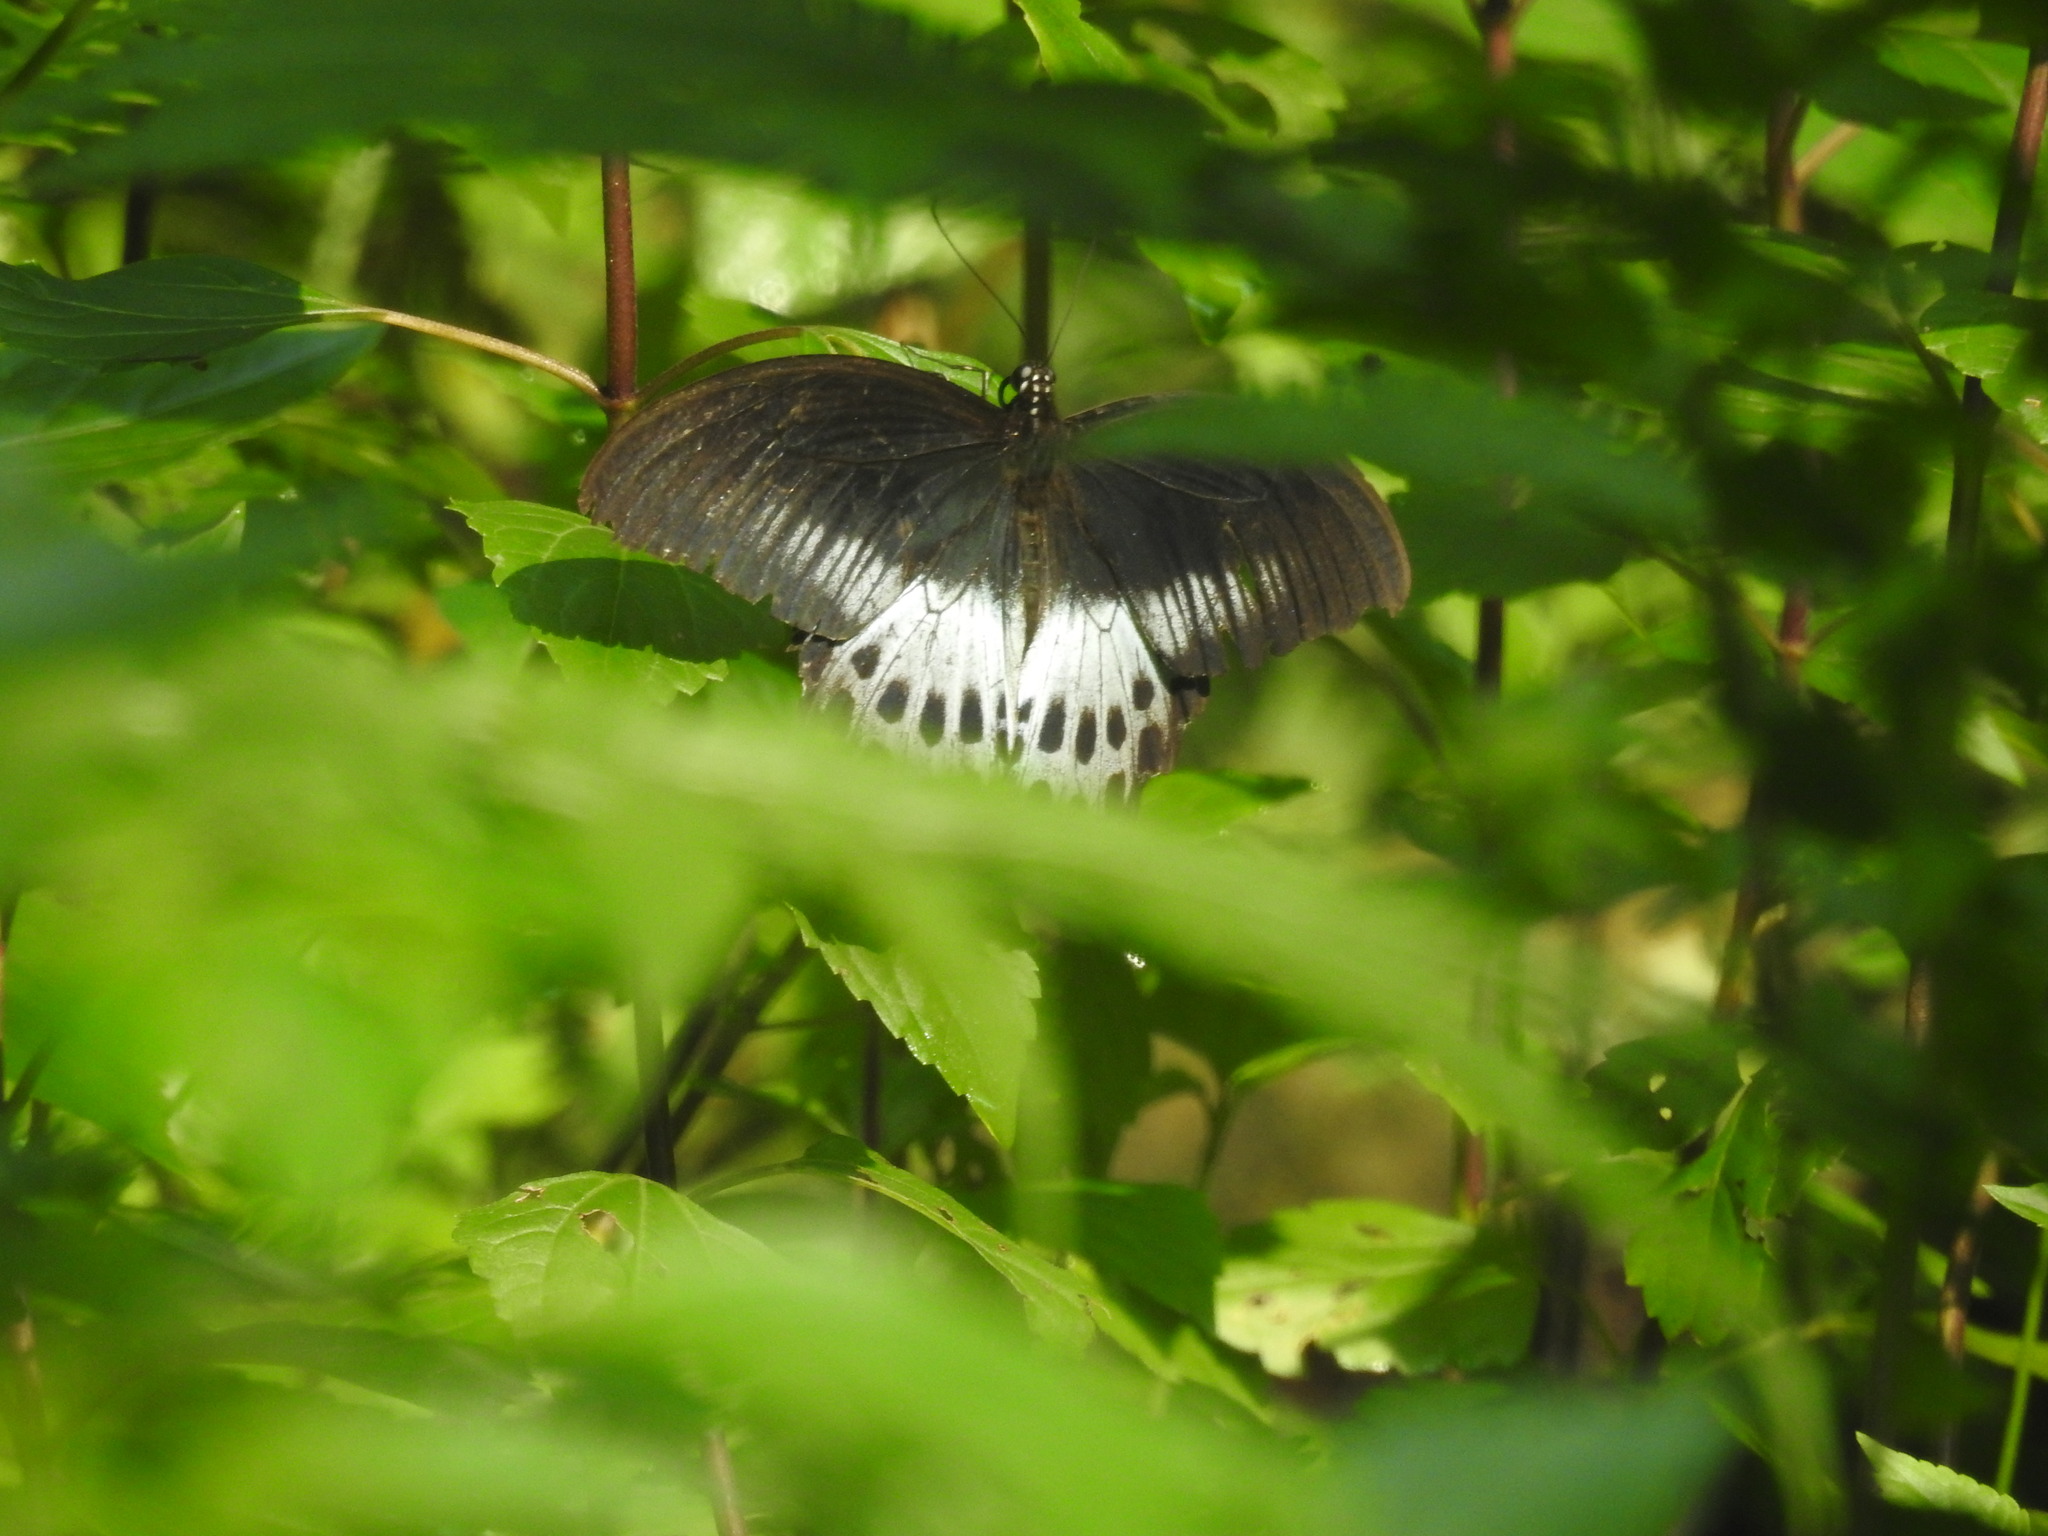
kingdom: Animalia
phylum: Arthropoda
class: Insecta
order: Lepidoptera
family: Papilionidae
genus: Papilio
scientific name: Papilio memnon
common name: Great mormon
